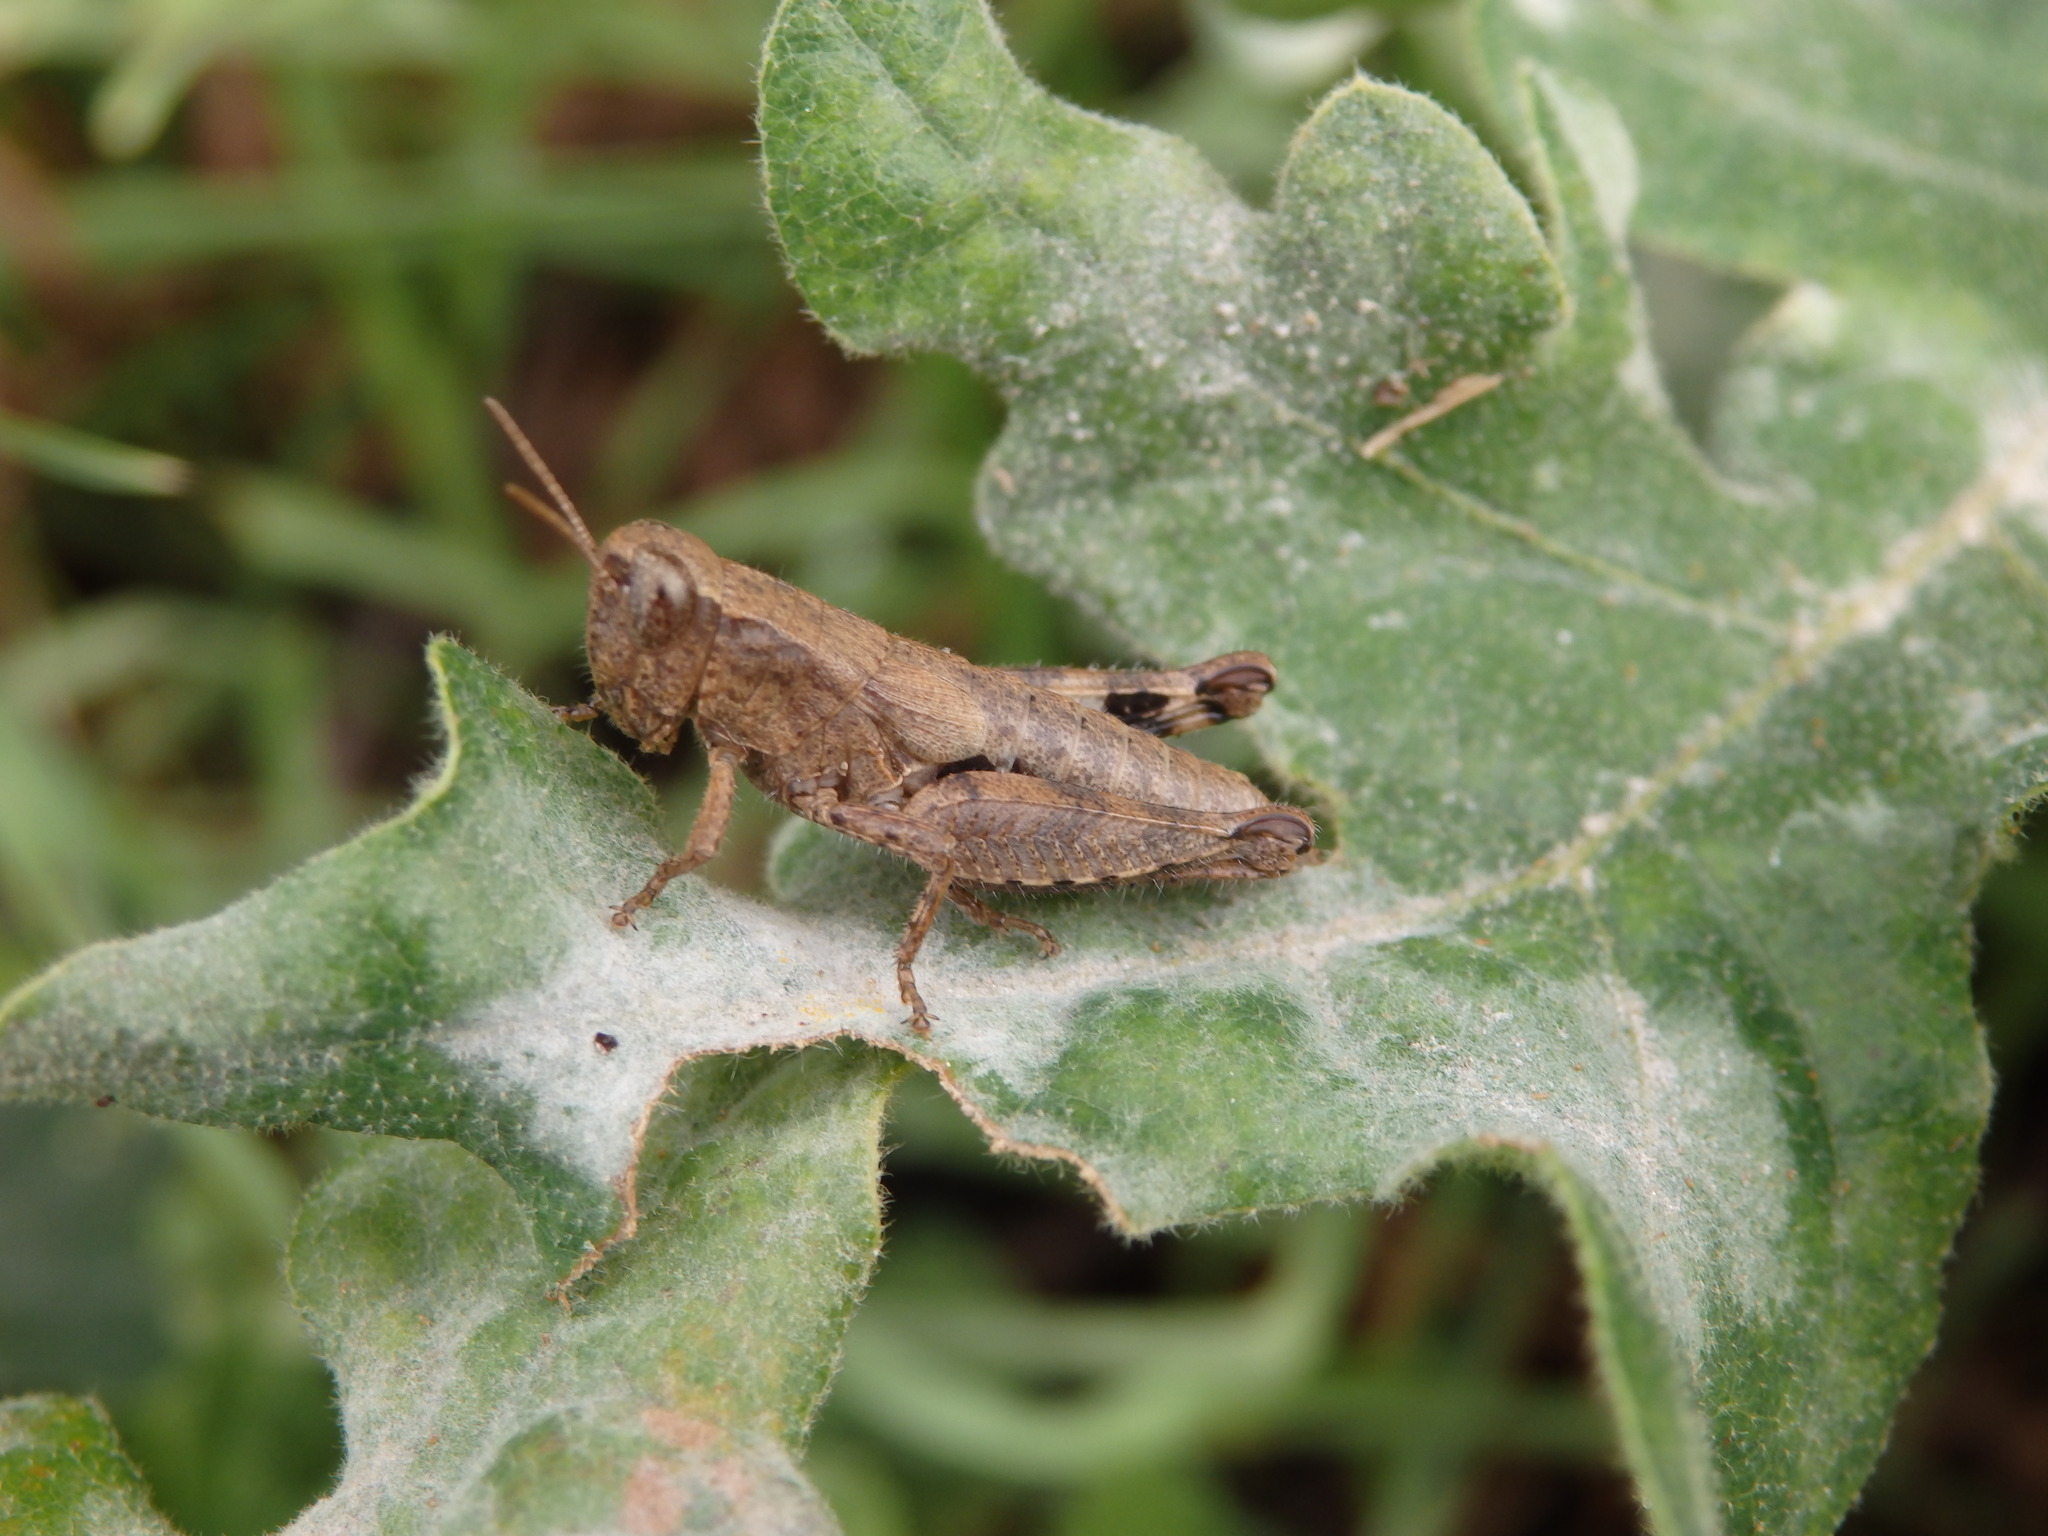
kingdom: Animalia
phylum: Arthropoda
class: Insecta
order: Orthoptera
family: Acrididae
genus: Pezotettix
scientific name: Pezotettix giornae
